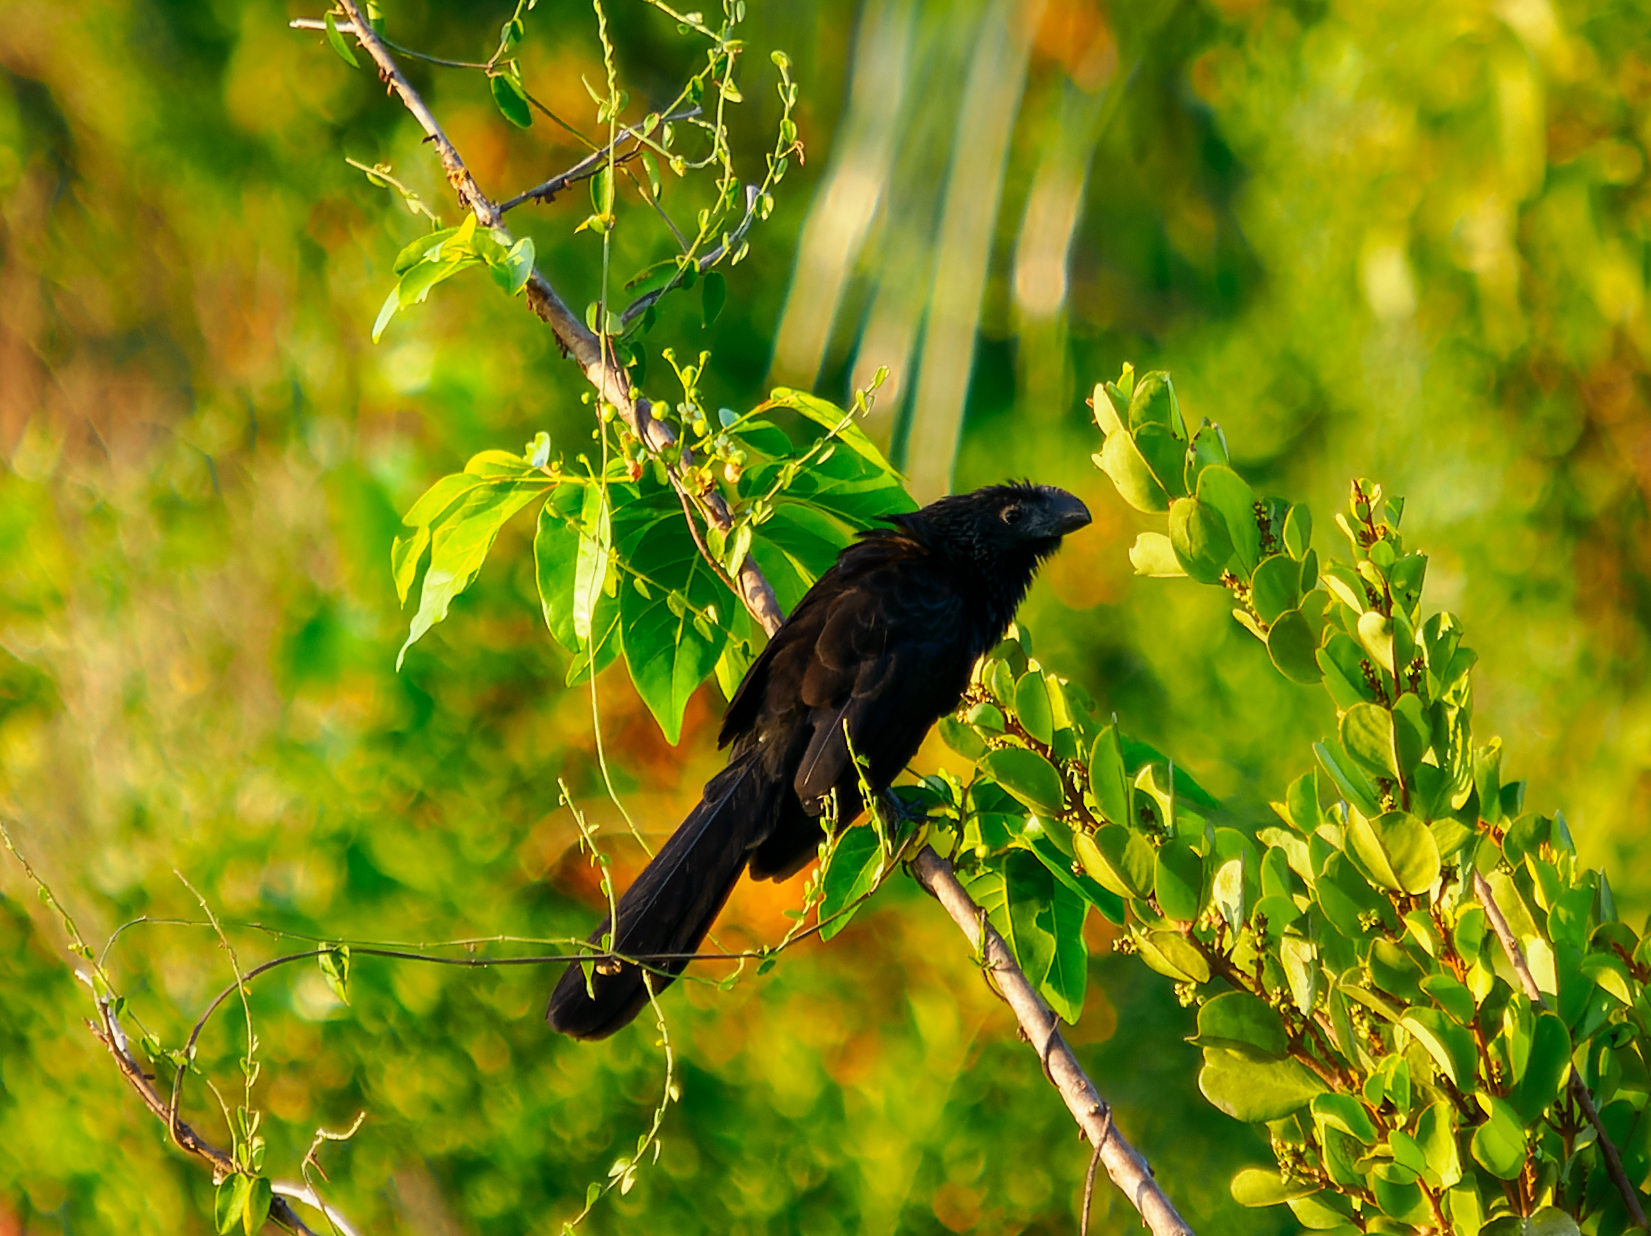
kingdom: Animalia
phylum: Chordata
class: Aves
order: Cuculiformes
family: Cuculidae
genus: Crotophaga
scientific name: Crotophaga ani
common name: Smooth-billed ani
